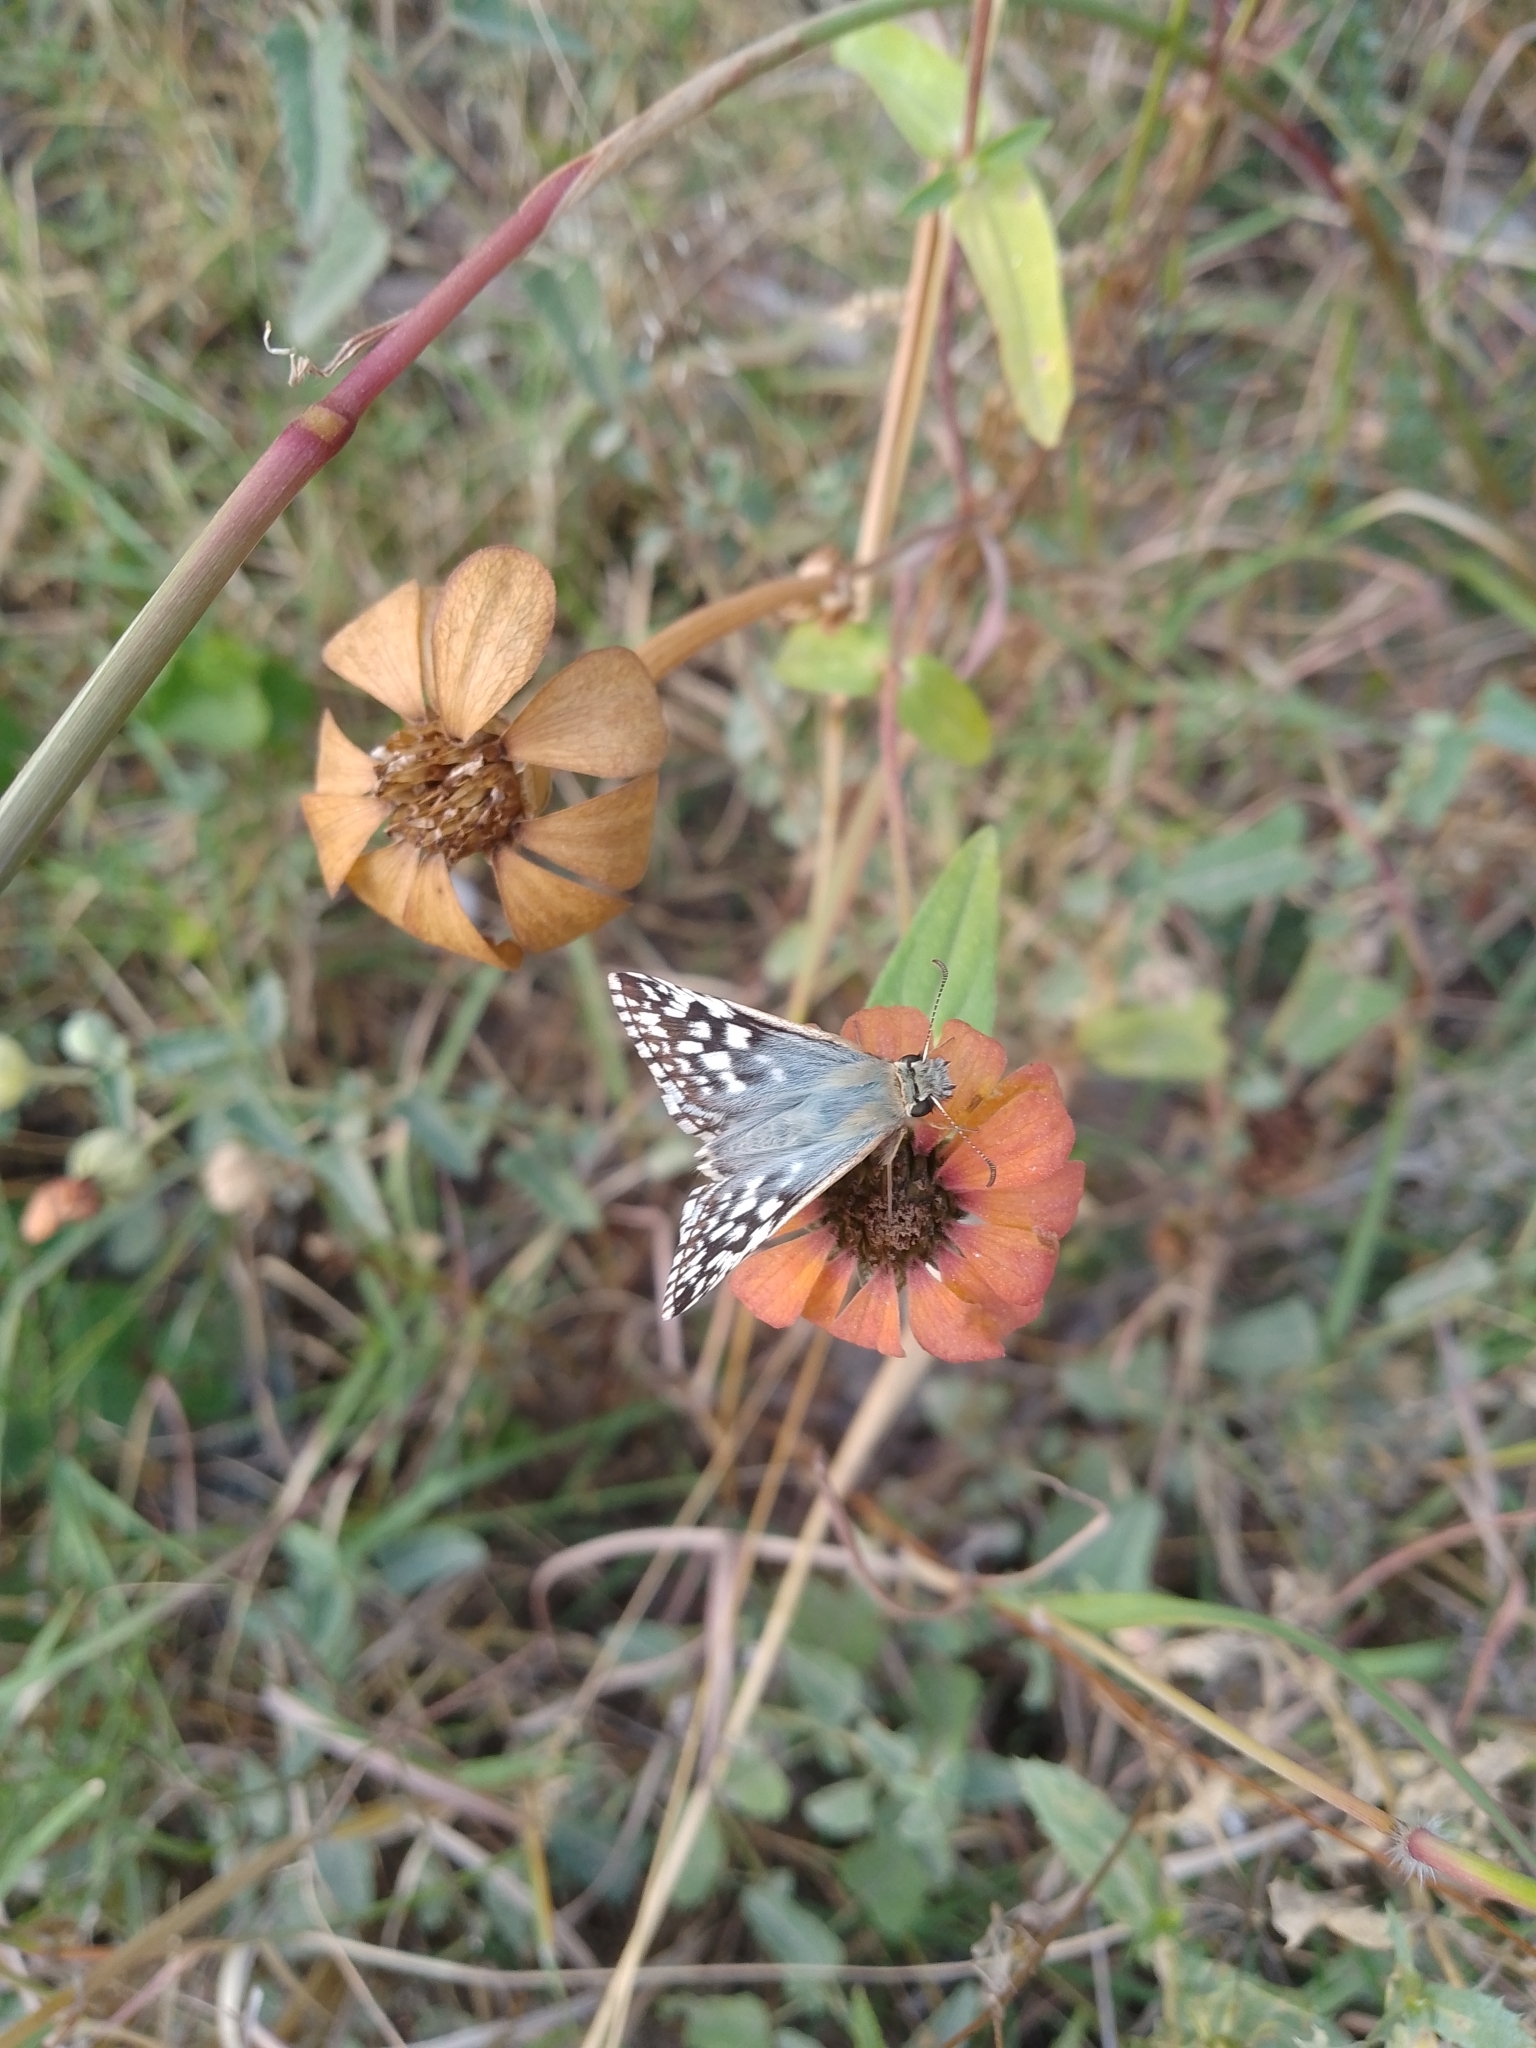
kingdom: Animalia
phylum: Arthropoda
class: Insecta
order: Lepidoptera
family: Hesperiidae
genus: Heliopetes
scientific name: Heliopetes americanus
